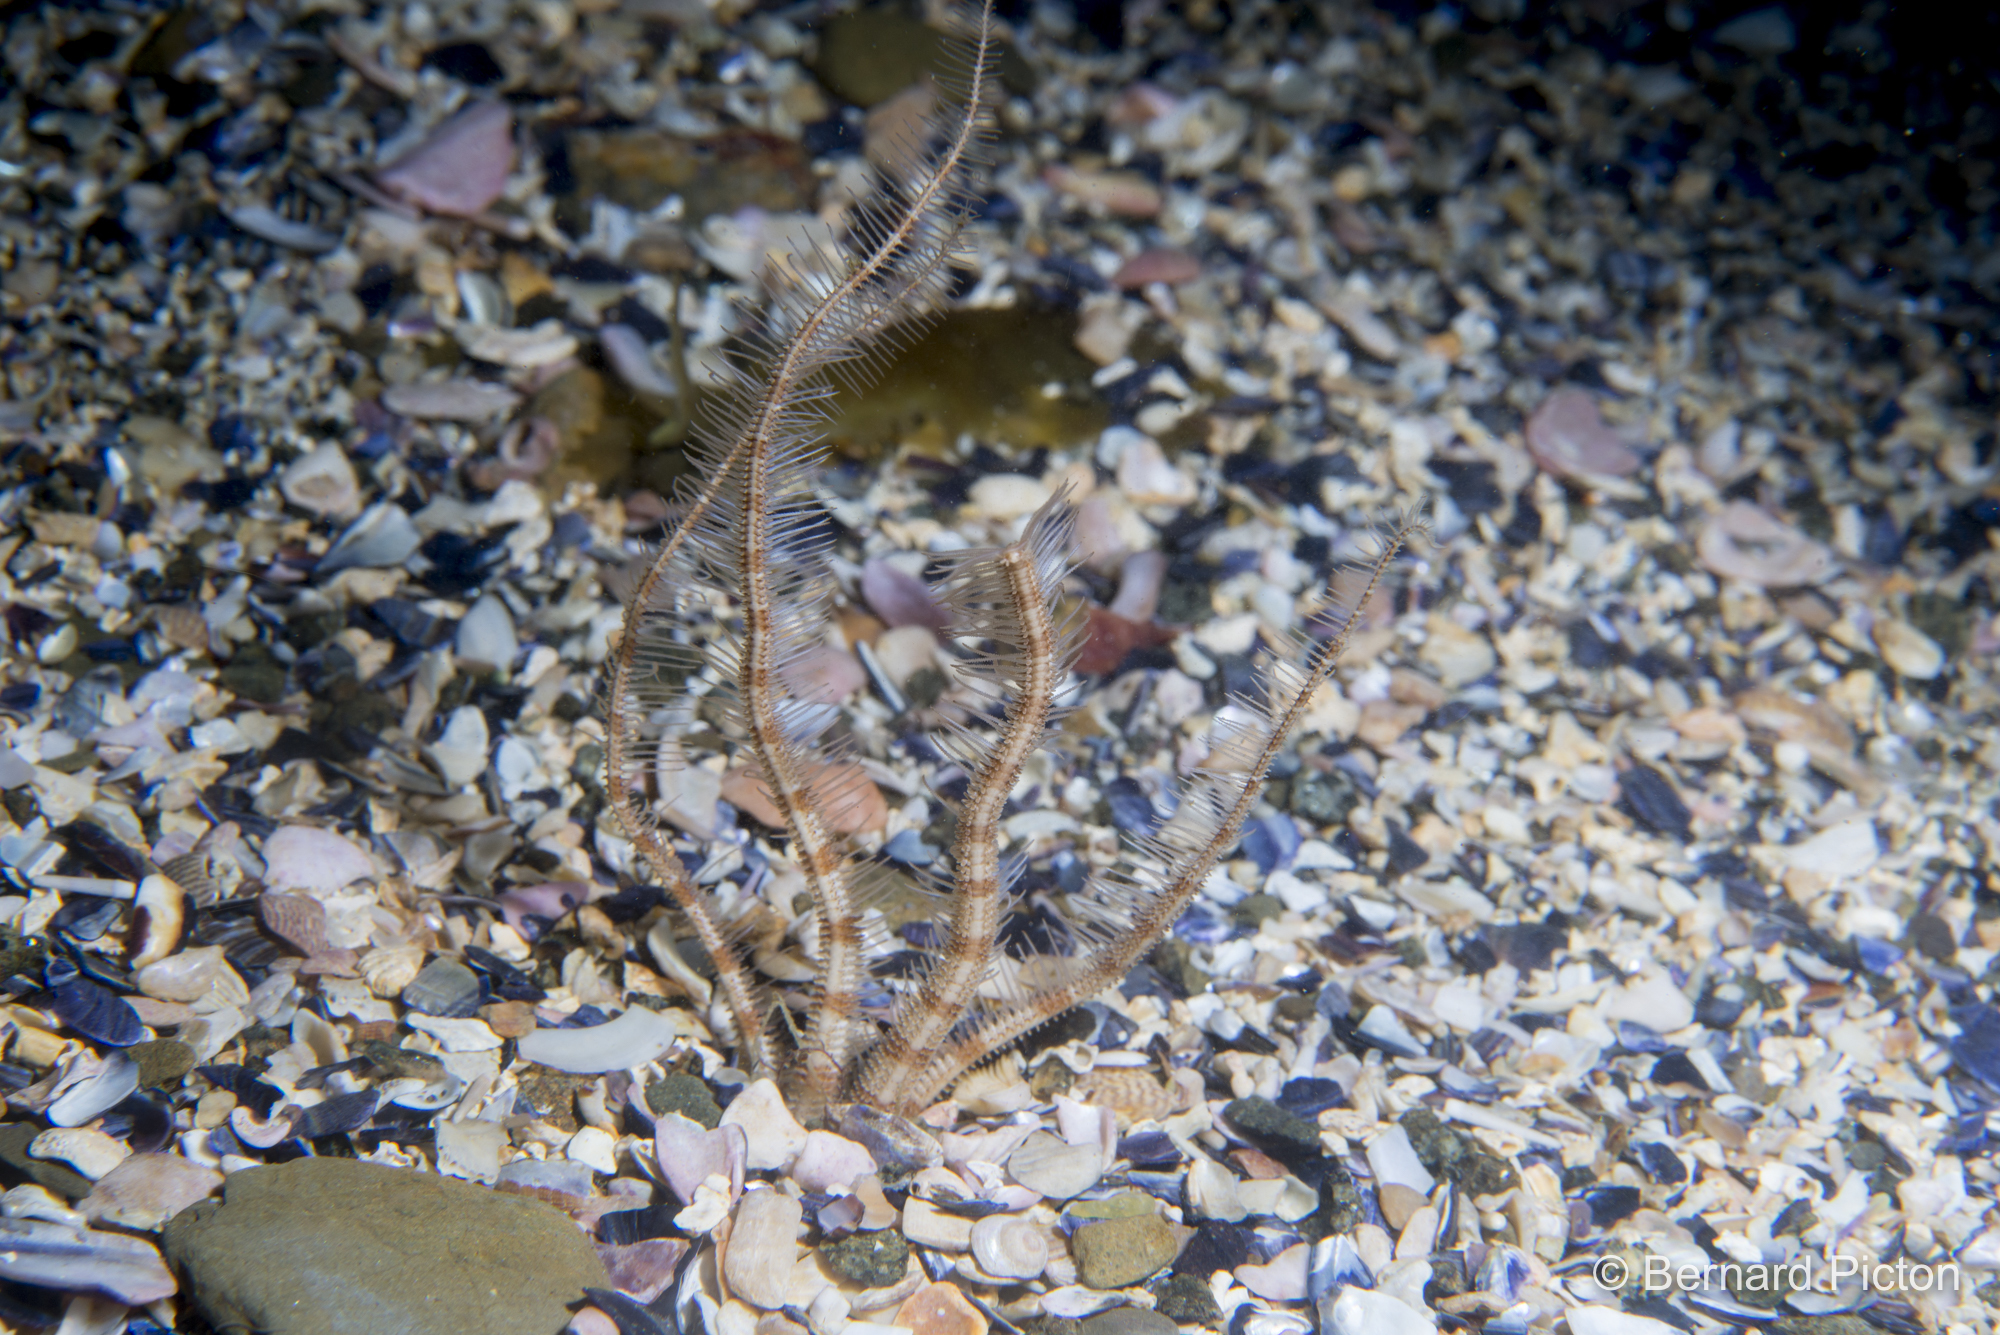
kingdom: Animalia
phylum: Echinodermata
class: Ophiuroidea
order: Amphilepidida
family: Ophiopsilidae
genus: Ophiopsila
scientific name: Ophiopsila annulosa
